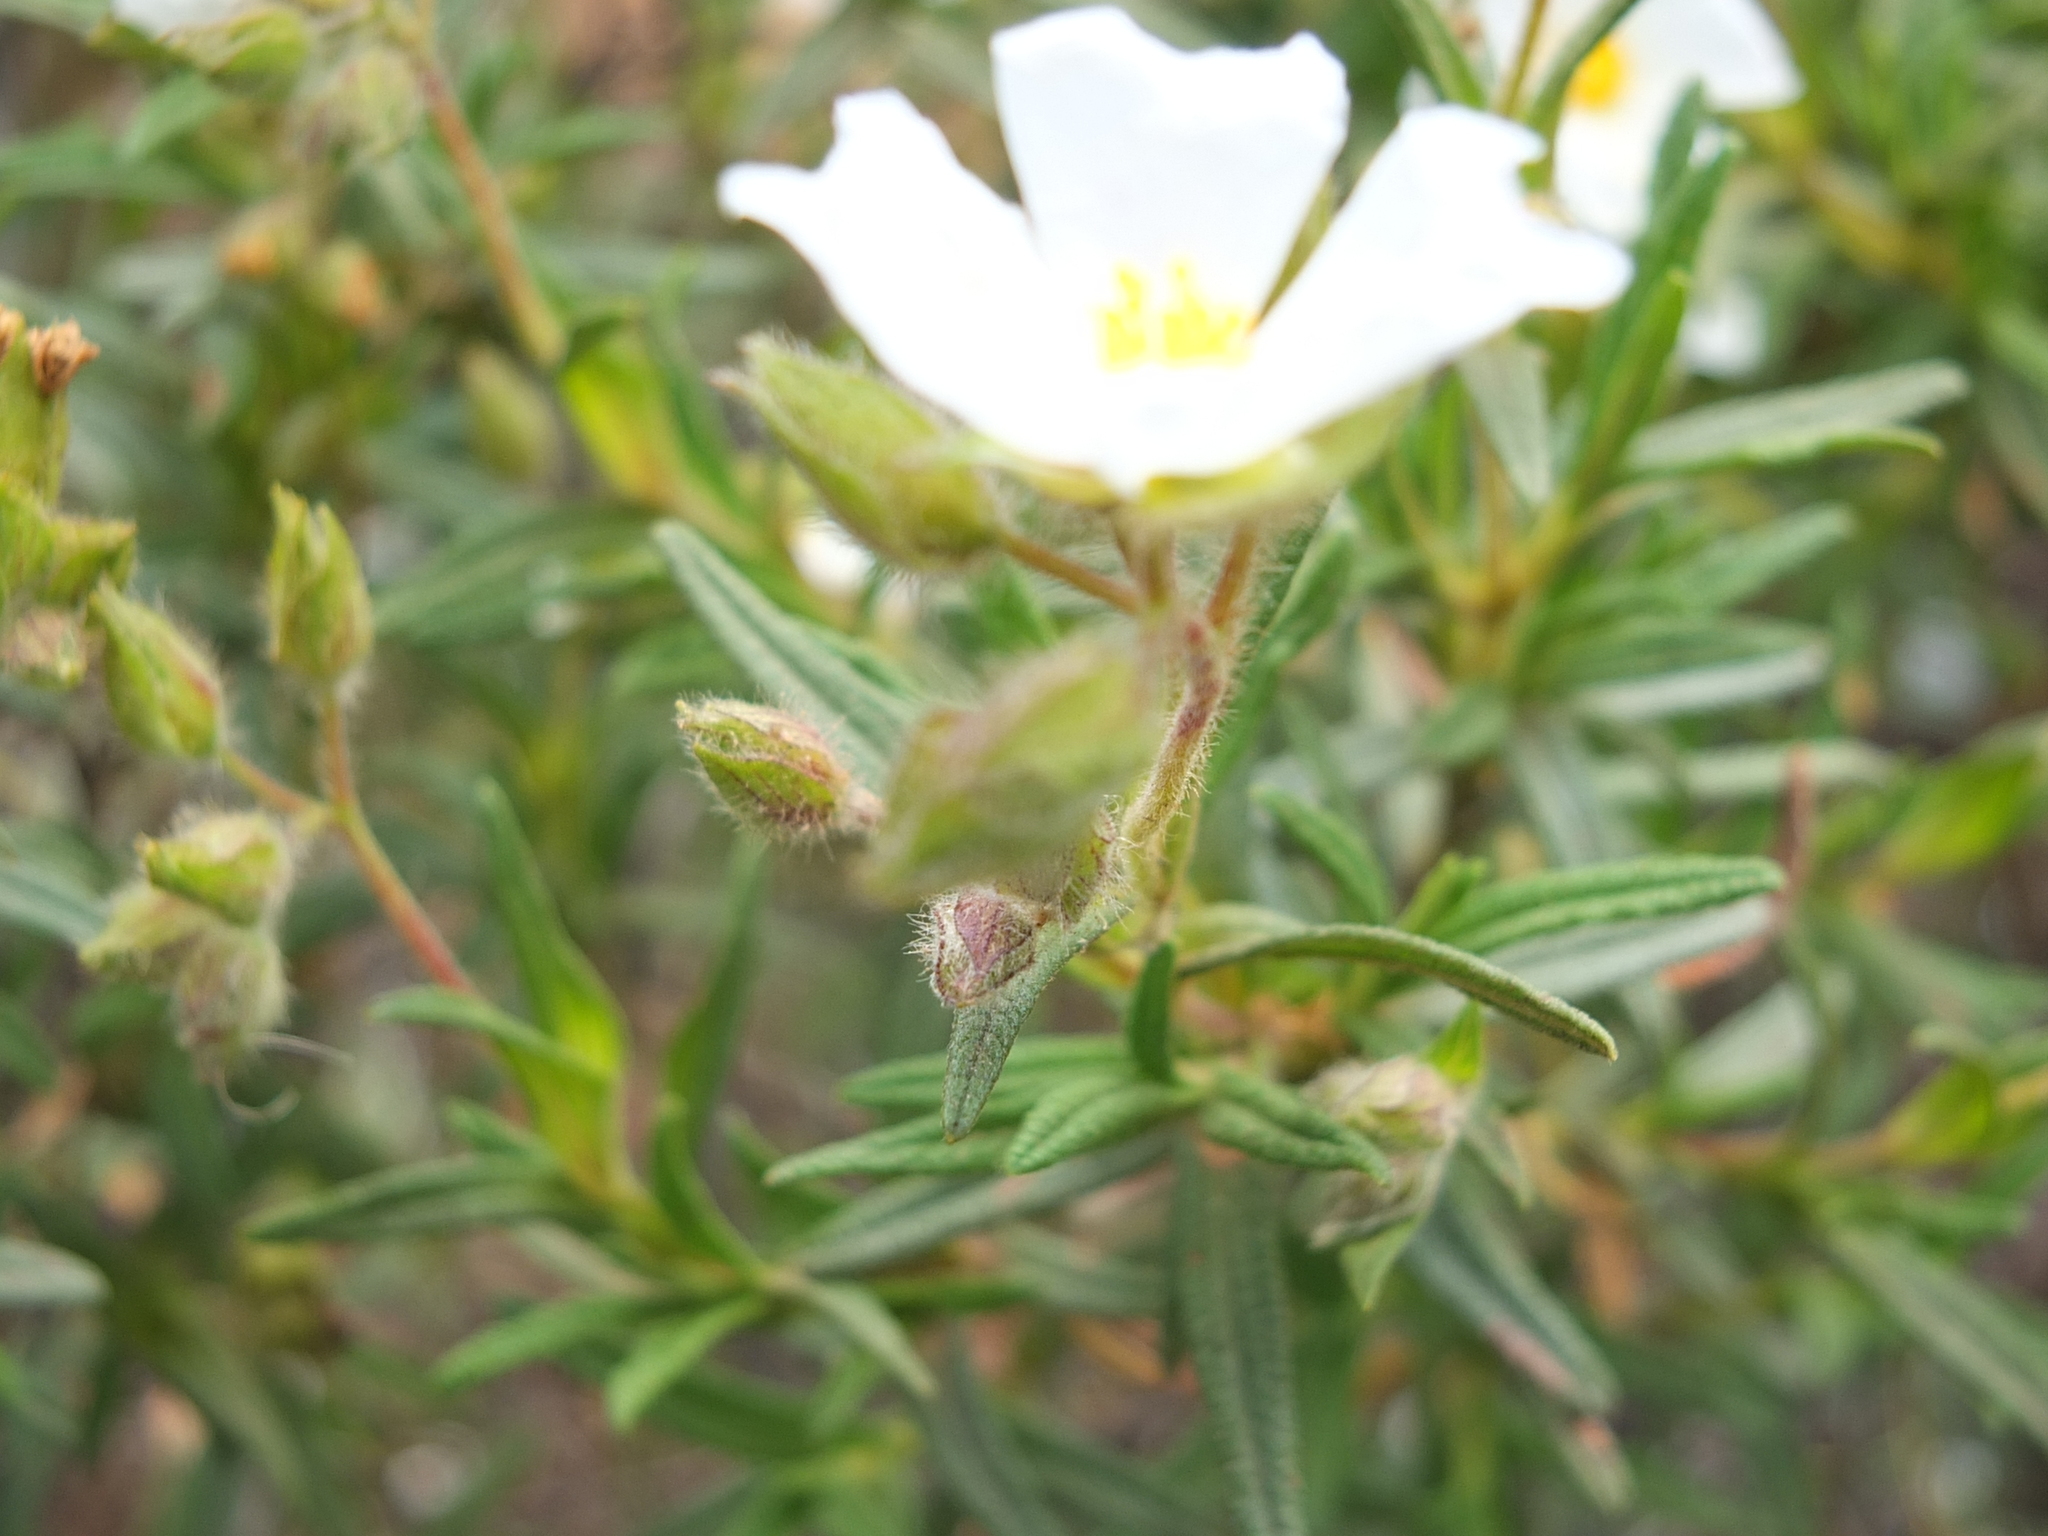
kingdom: Plantae
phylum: Tracheophyta
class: Magnoliopsida
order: Malvales
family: Cistaceae
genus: Cistus
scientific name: Cistus monspeliensis
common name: Montpelier cistus
